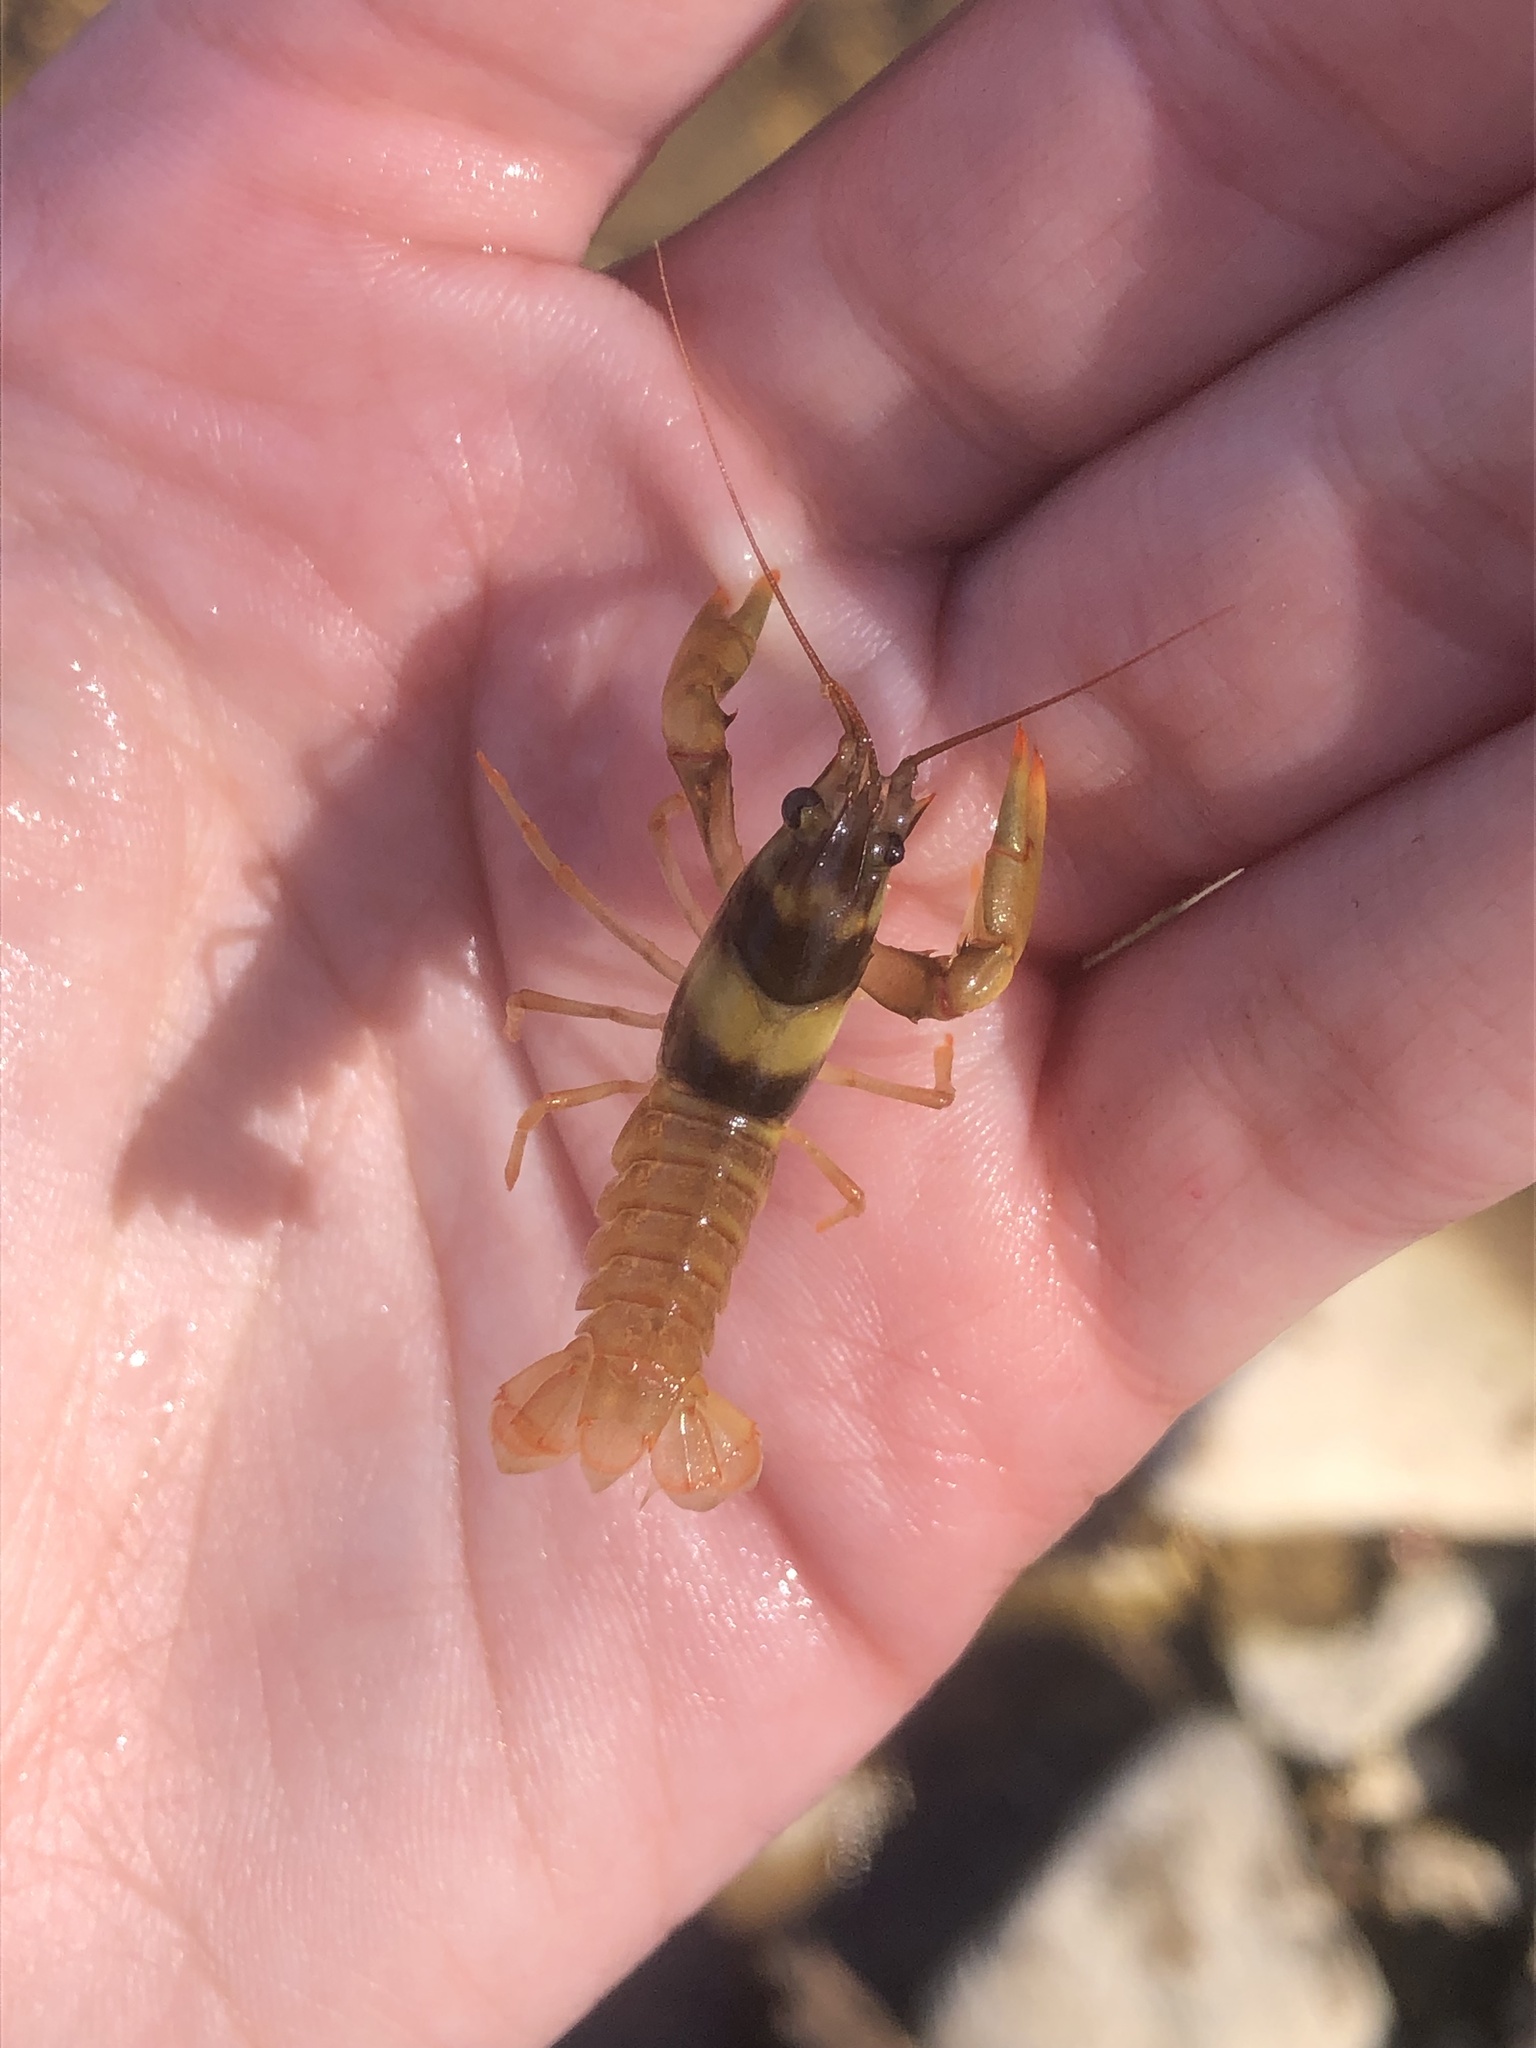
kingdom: Animalia
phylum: Arthropoda
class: Malacostraca
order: Decapoda
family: Cambaridae
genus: Faxonius
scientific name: Faxonius luteus
